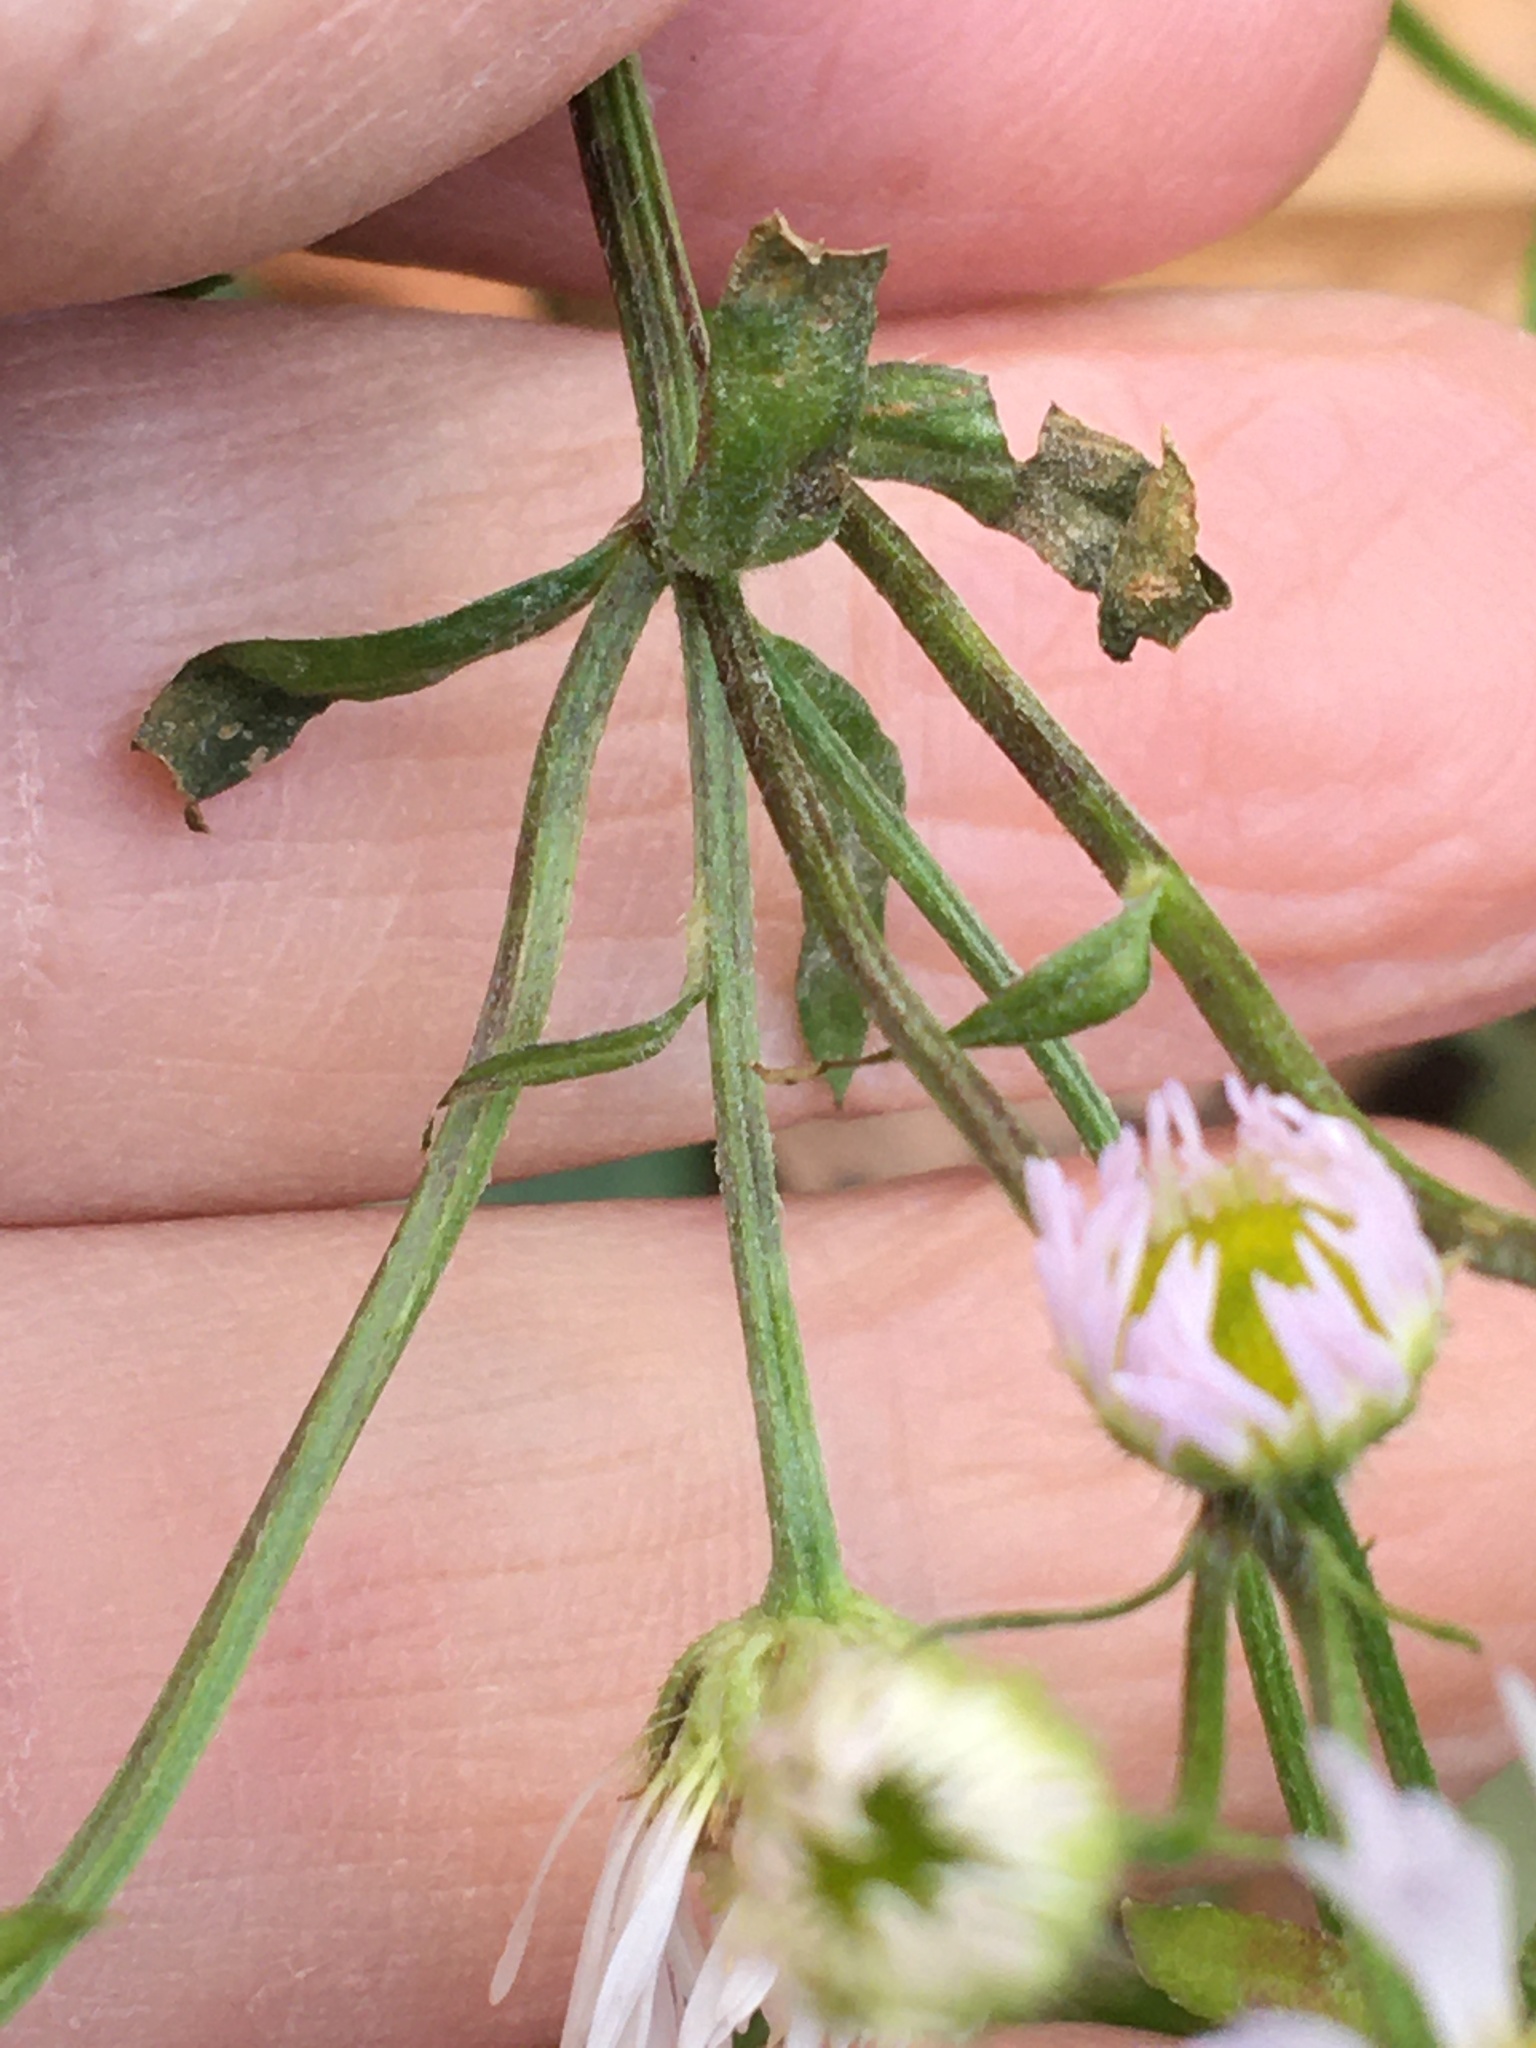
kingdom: Plantae
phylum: Tracheophyta
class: Magnoliopsida
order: Asterales
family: Asteraceae
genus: Erigeron
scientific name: Erigeron strigosus
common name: Common eastern fleabane
